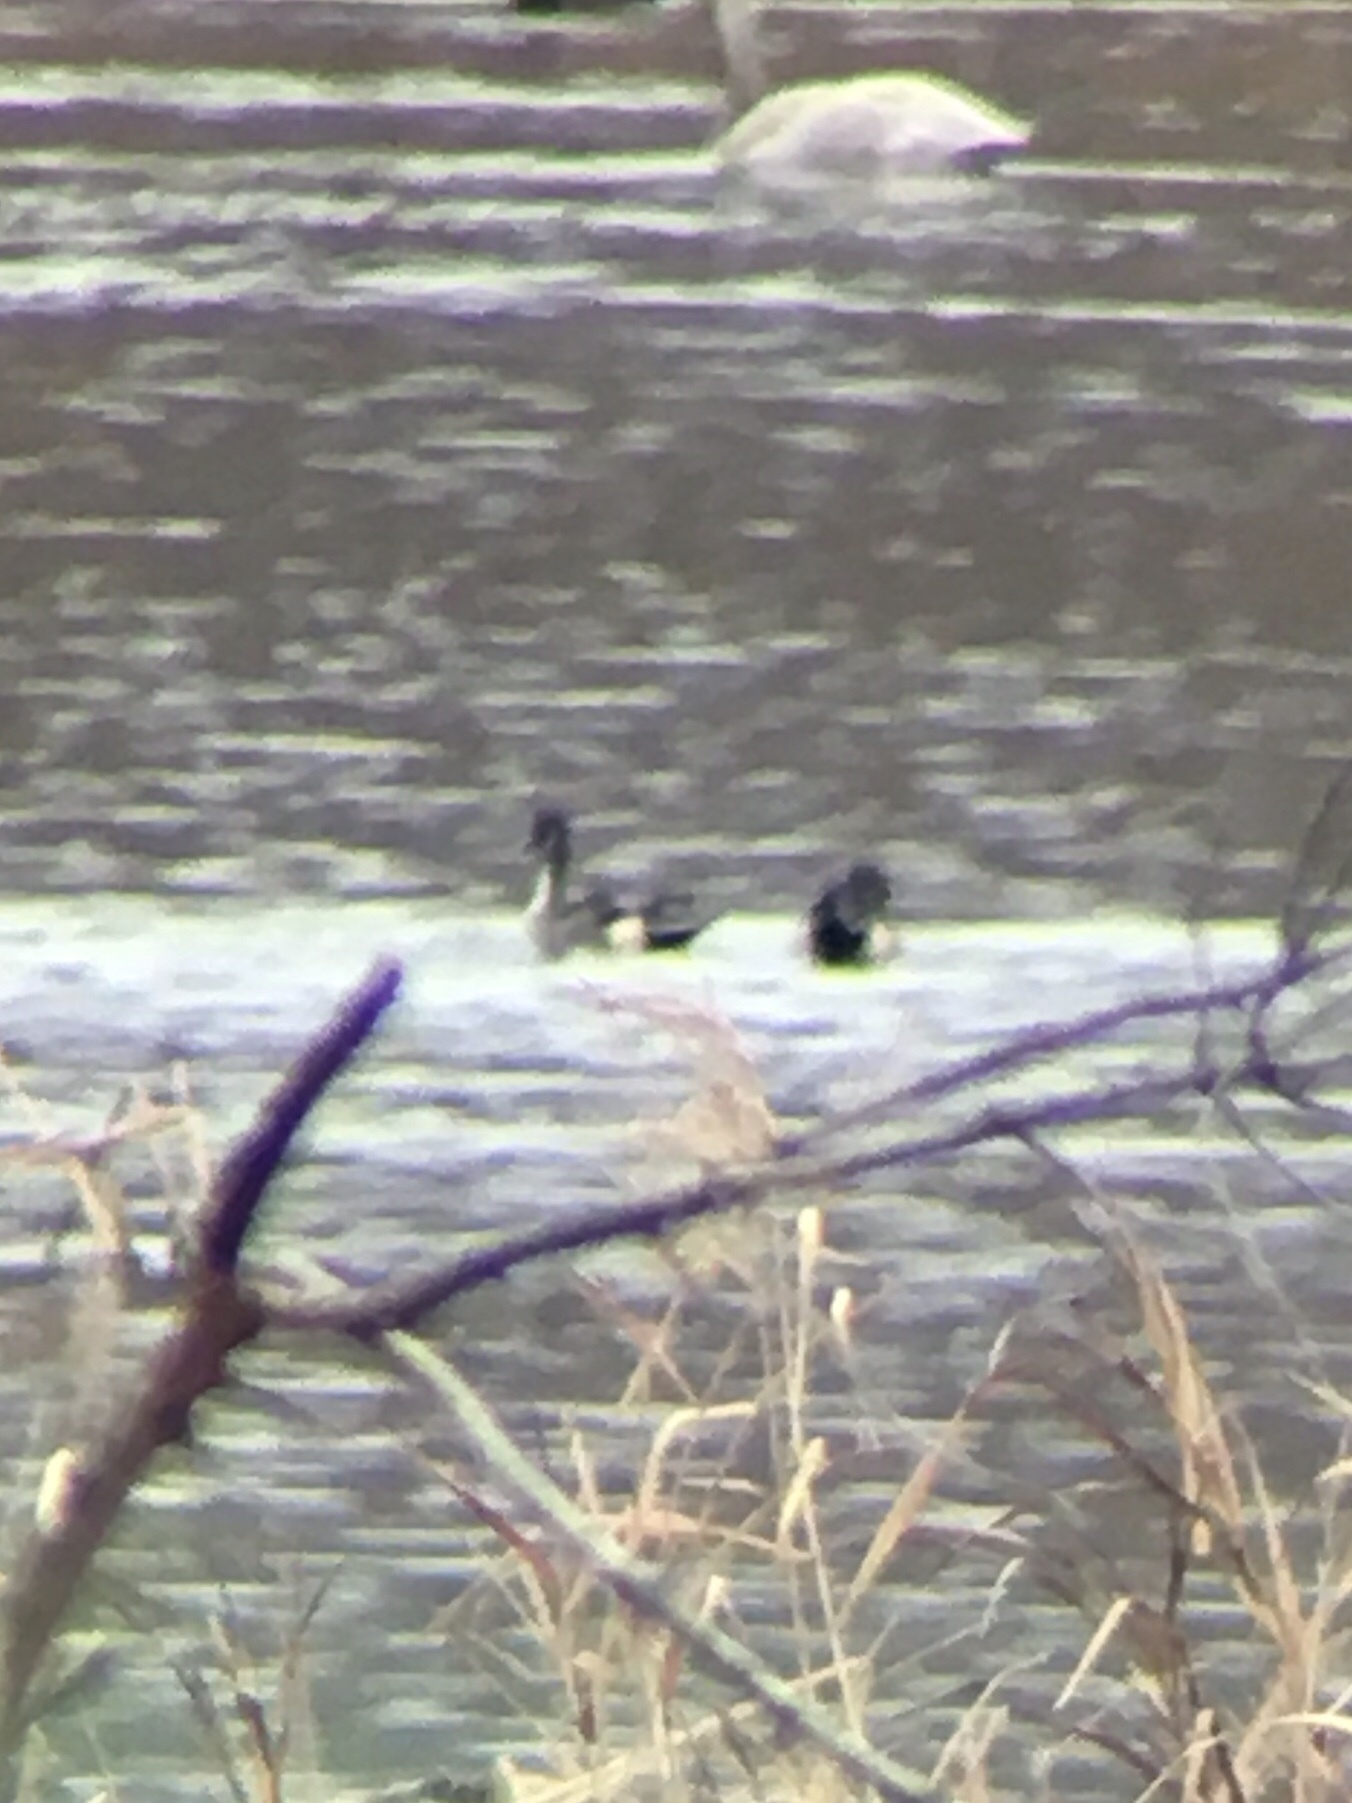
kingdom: Animalia
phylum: Chordata
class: Aves
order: Anseriformes
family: Anatidae
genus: Anas
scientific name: Anas acuta
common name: Northern pintail
